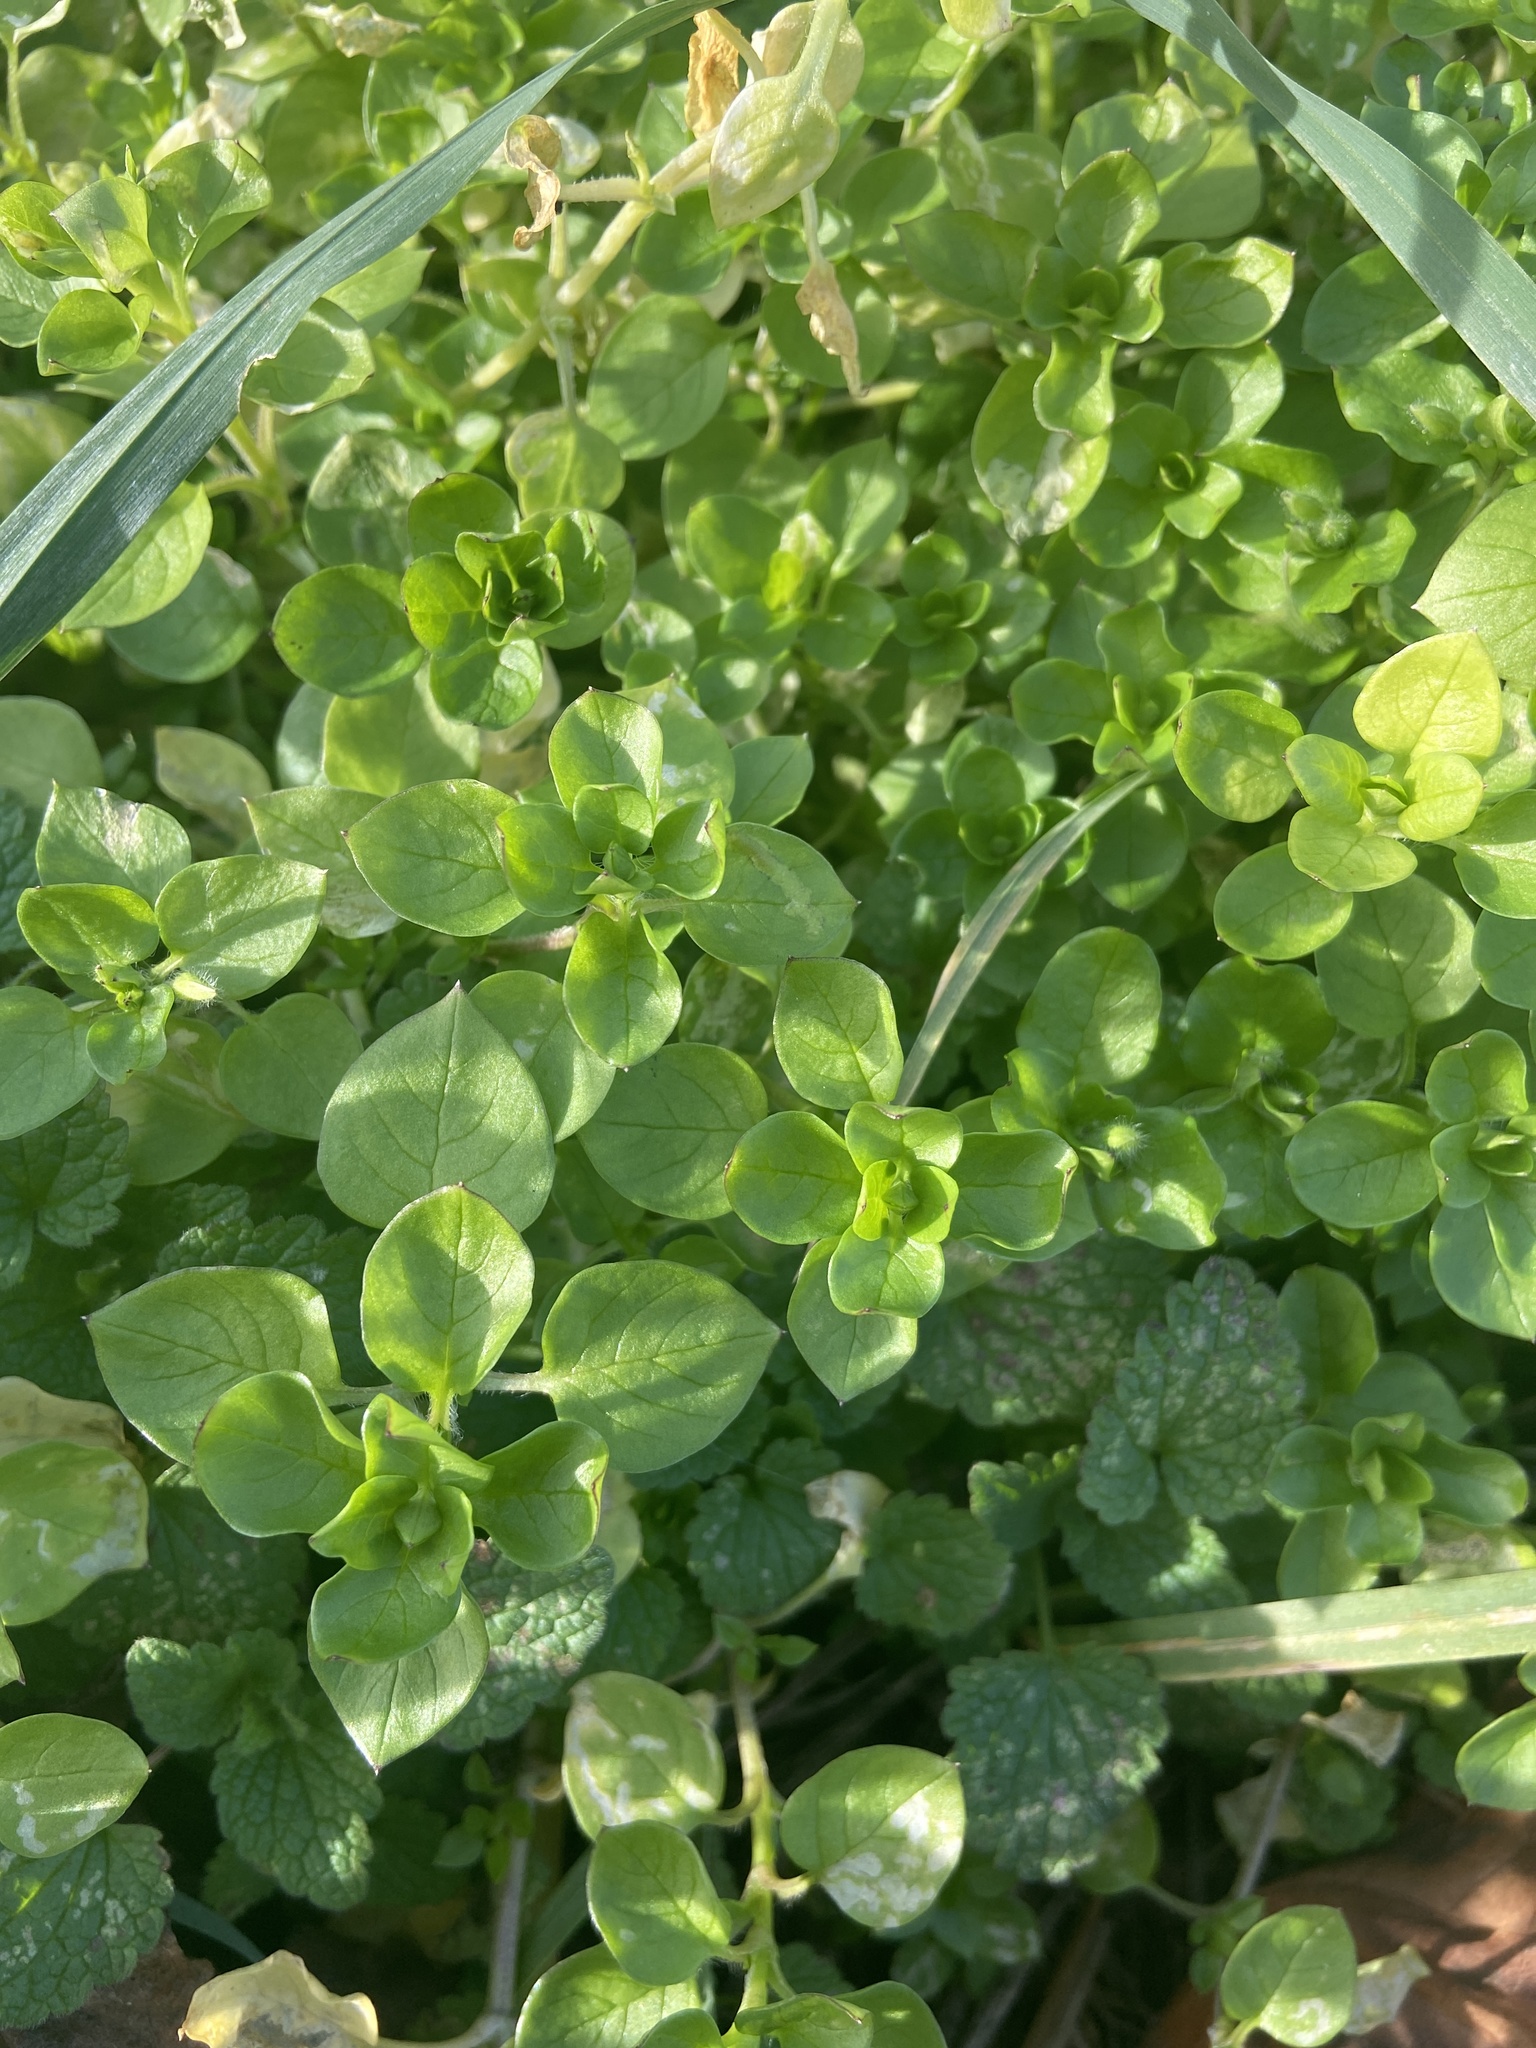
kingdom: Plantae
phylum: Tracheophyta
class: Magnoliopsida
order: Caryophyllales
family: Caryophyllaceae
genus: Stellaria
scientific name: Stellaria media
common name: Common chickweed
